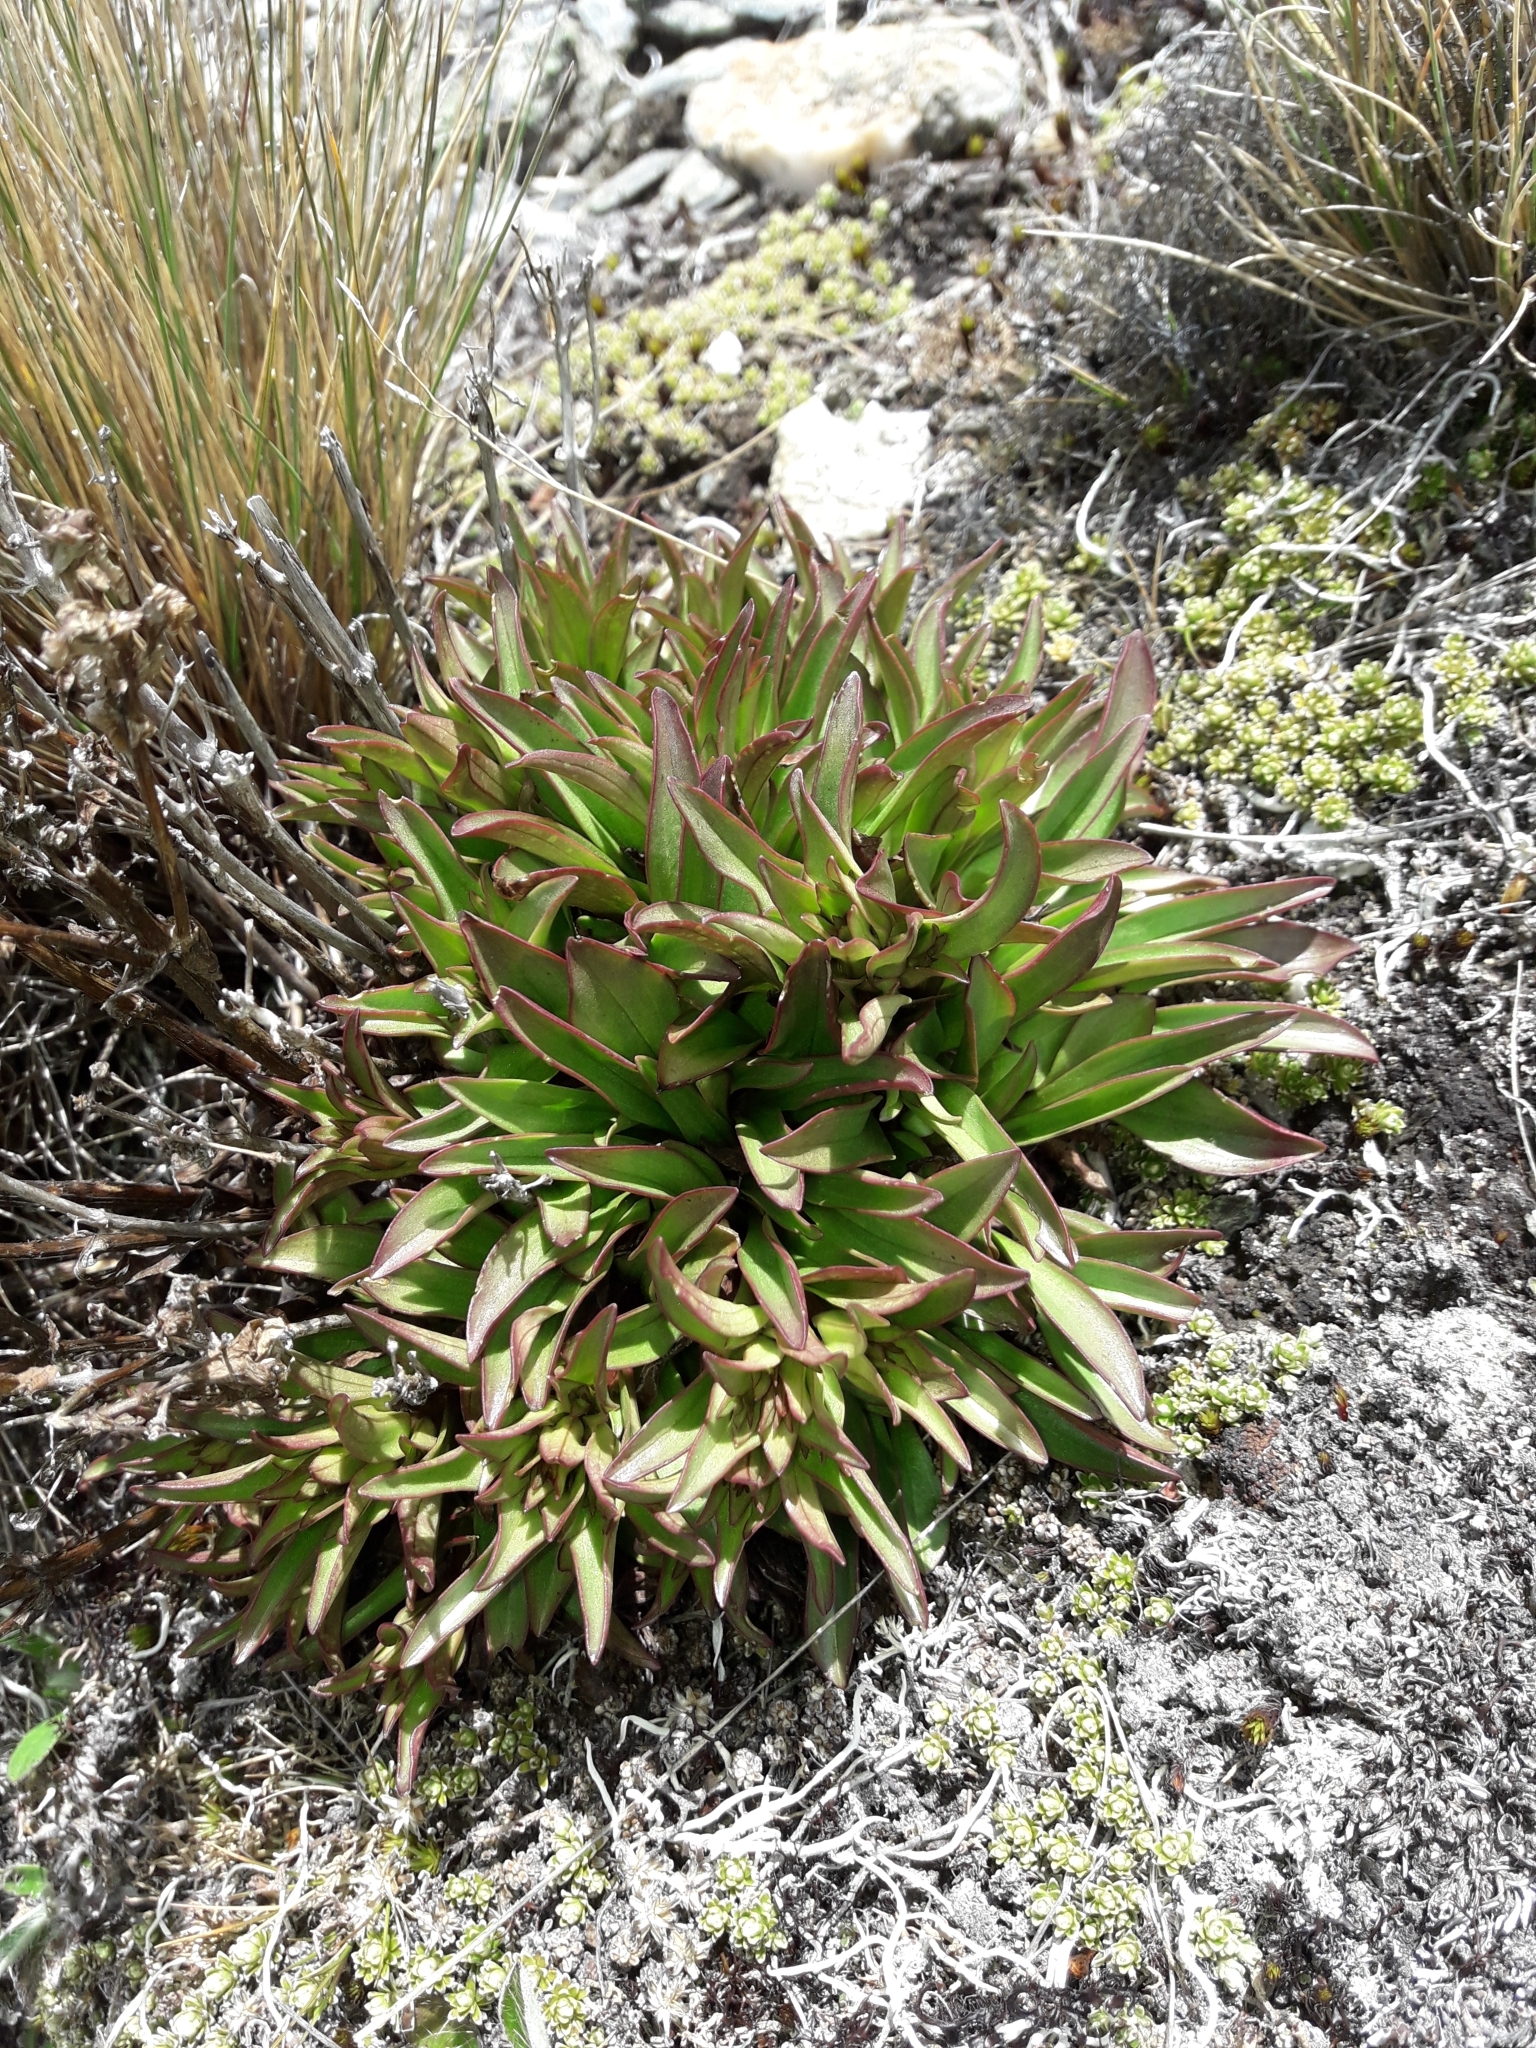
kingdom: Plantae
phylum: Tracheophyta
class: Magnoliopsida
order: Gentianales
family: Gentianaceae
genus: Gentianella
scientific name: Gentianella bellidifolia
